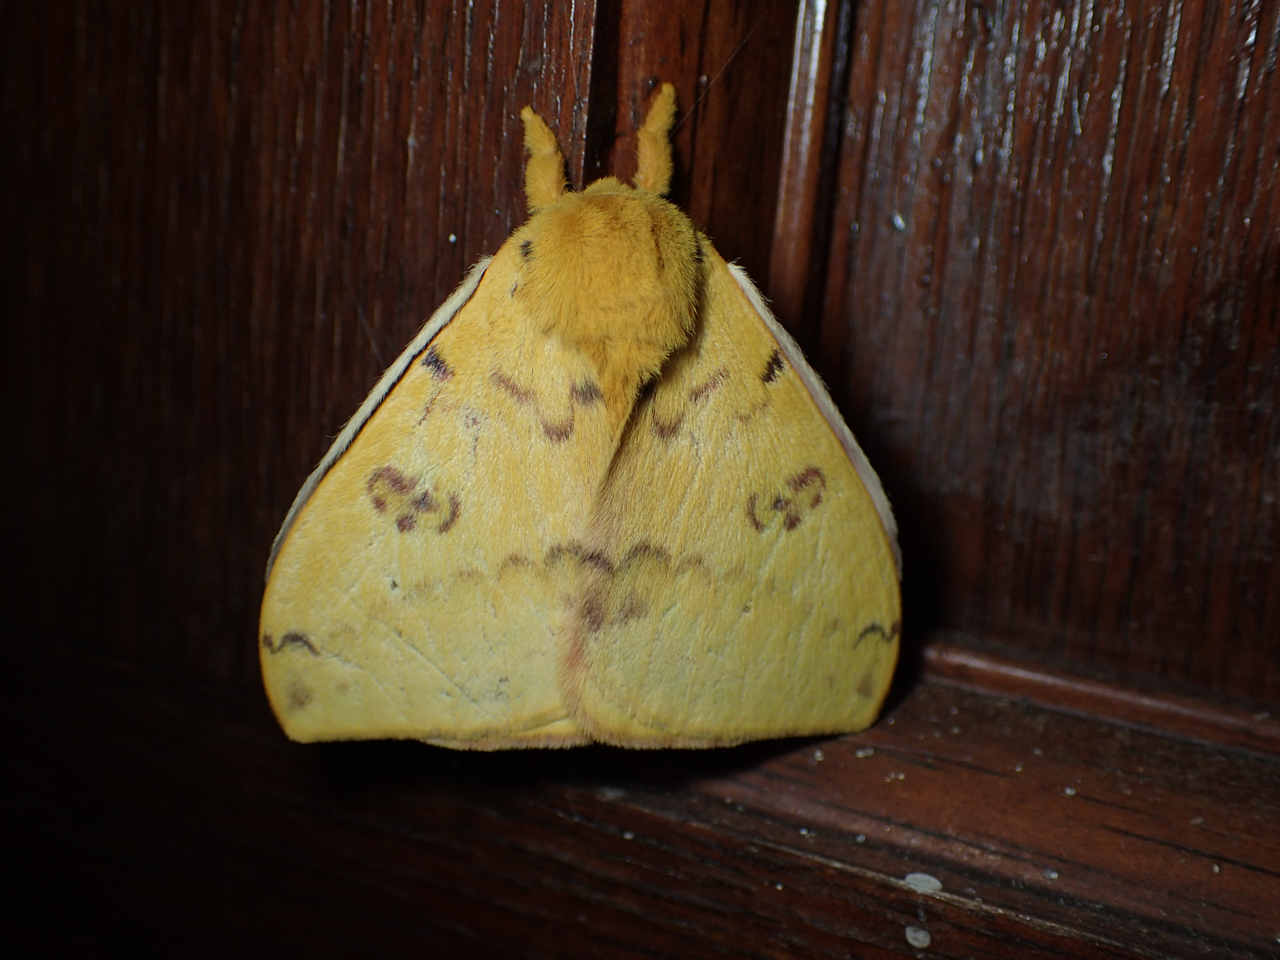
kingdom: Animalia
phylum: Arthropoda
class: Insecta
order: Lepidoptera
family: Saturniidae
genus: Automeris
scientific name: Automeris io
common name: Io moth
